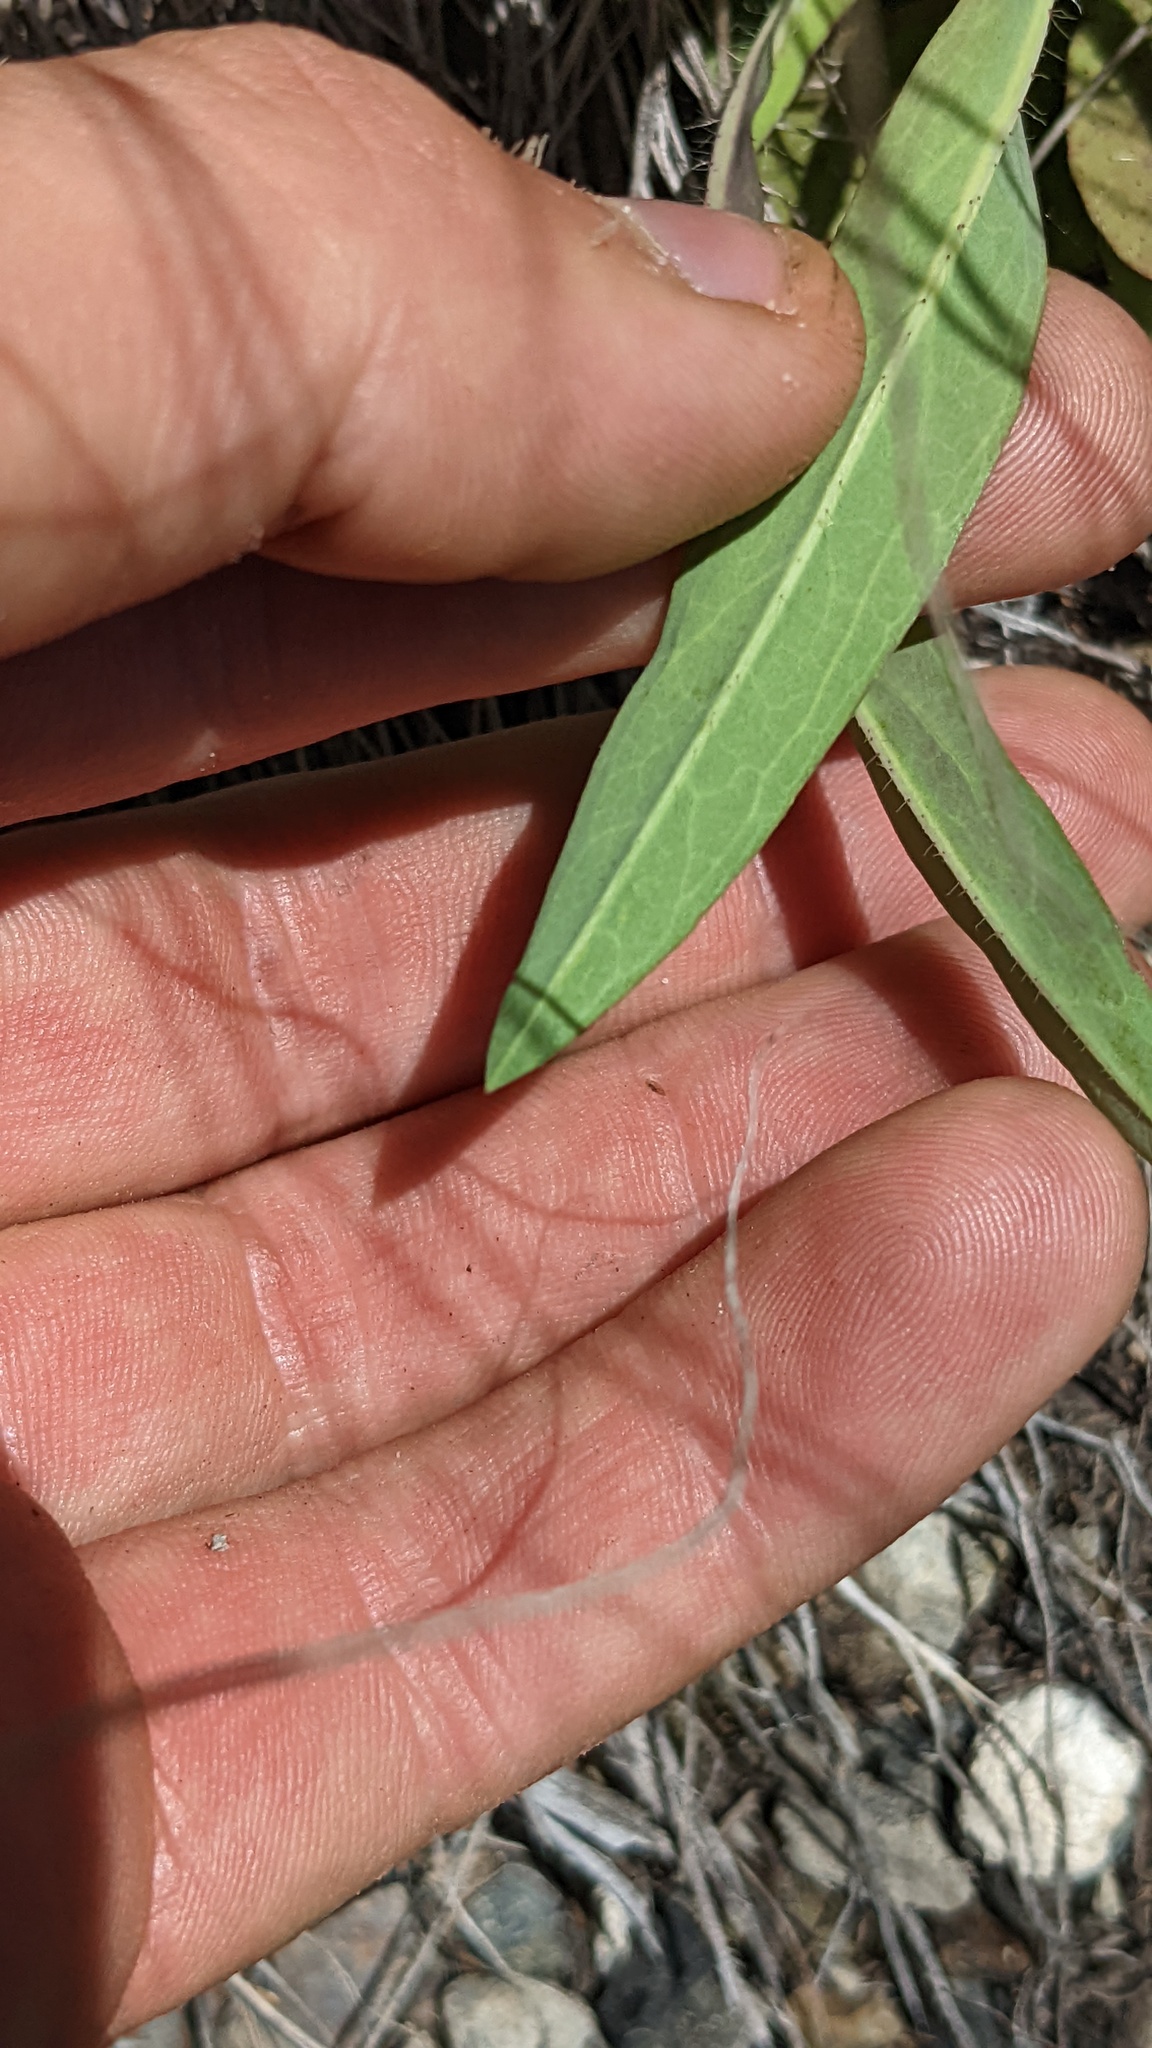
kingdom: Plantae
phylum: Tracheophyta
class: Magnoliopsida
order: Asterales
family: Asteraceae
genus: Pilosella
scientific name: Pilosella caespitosa
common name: Yellow fox-and-cubs
